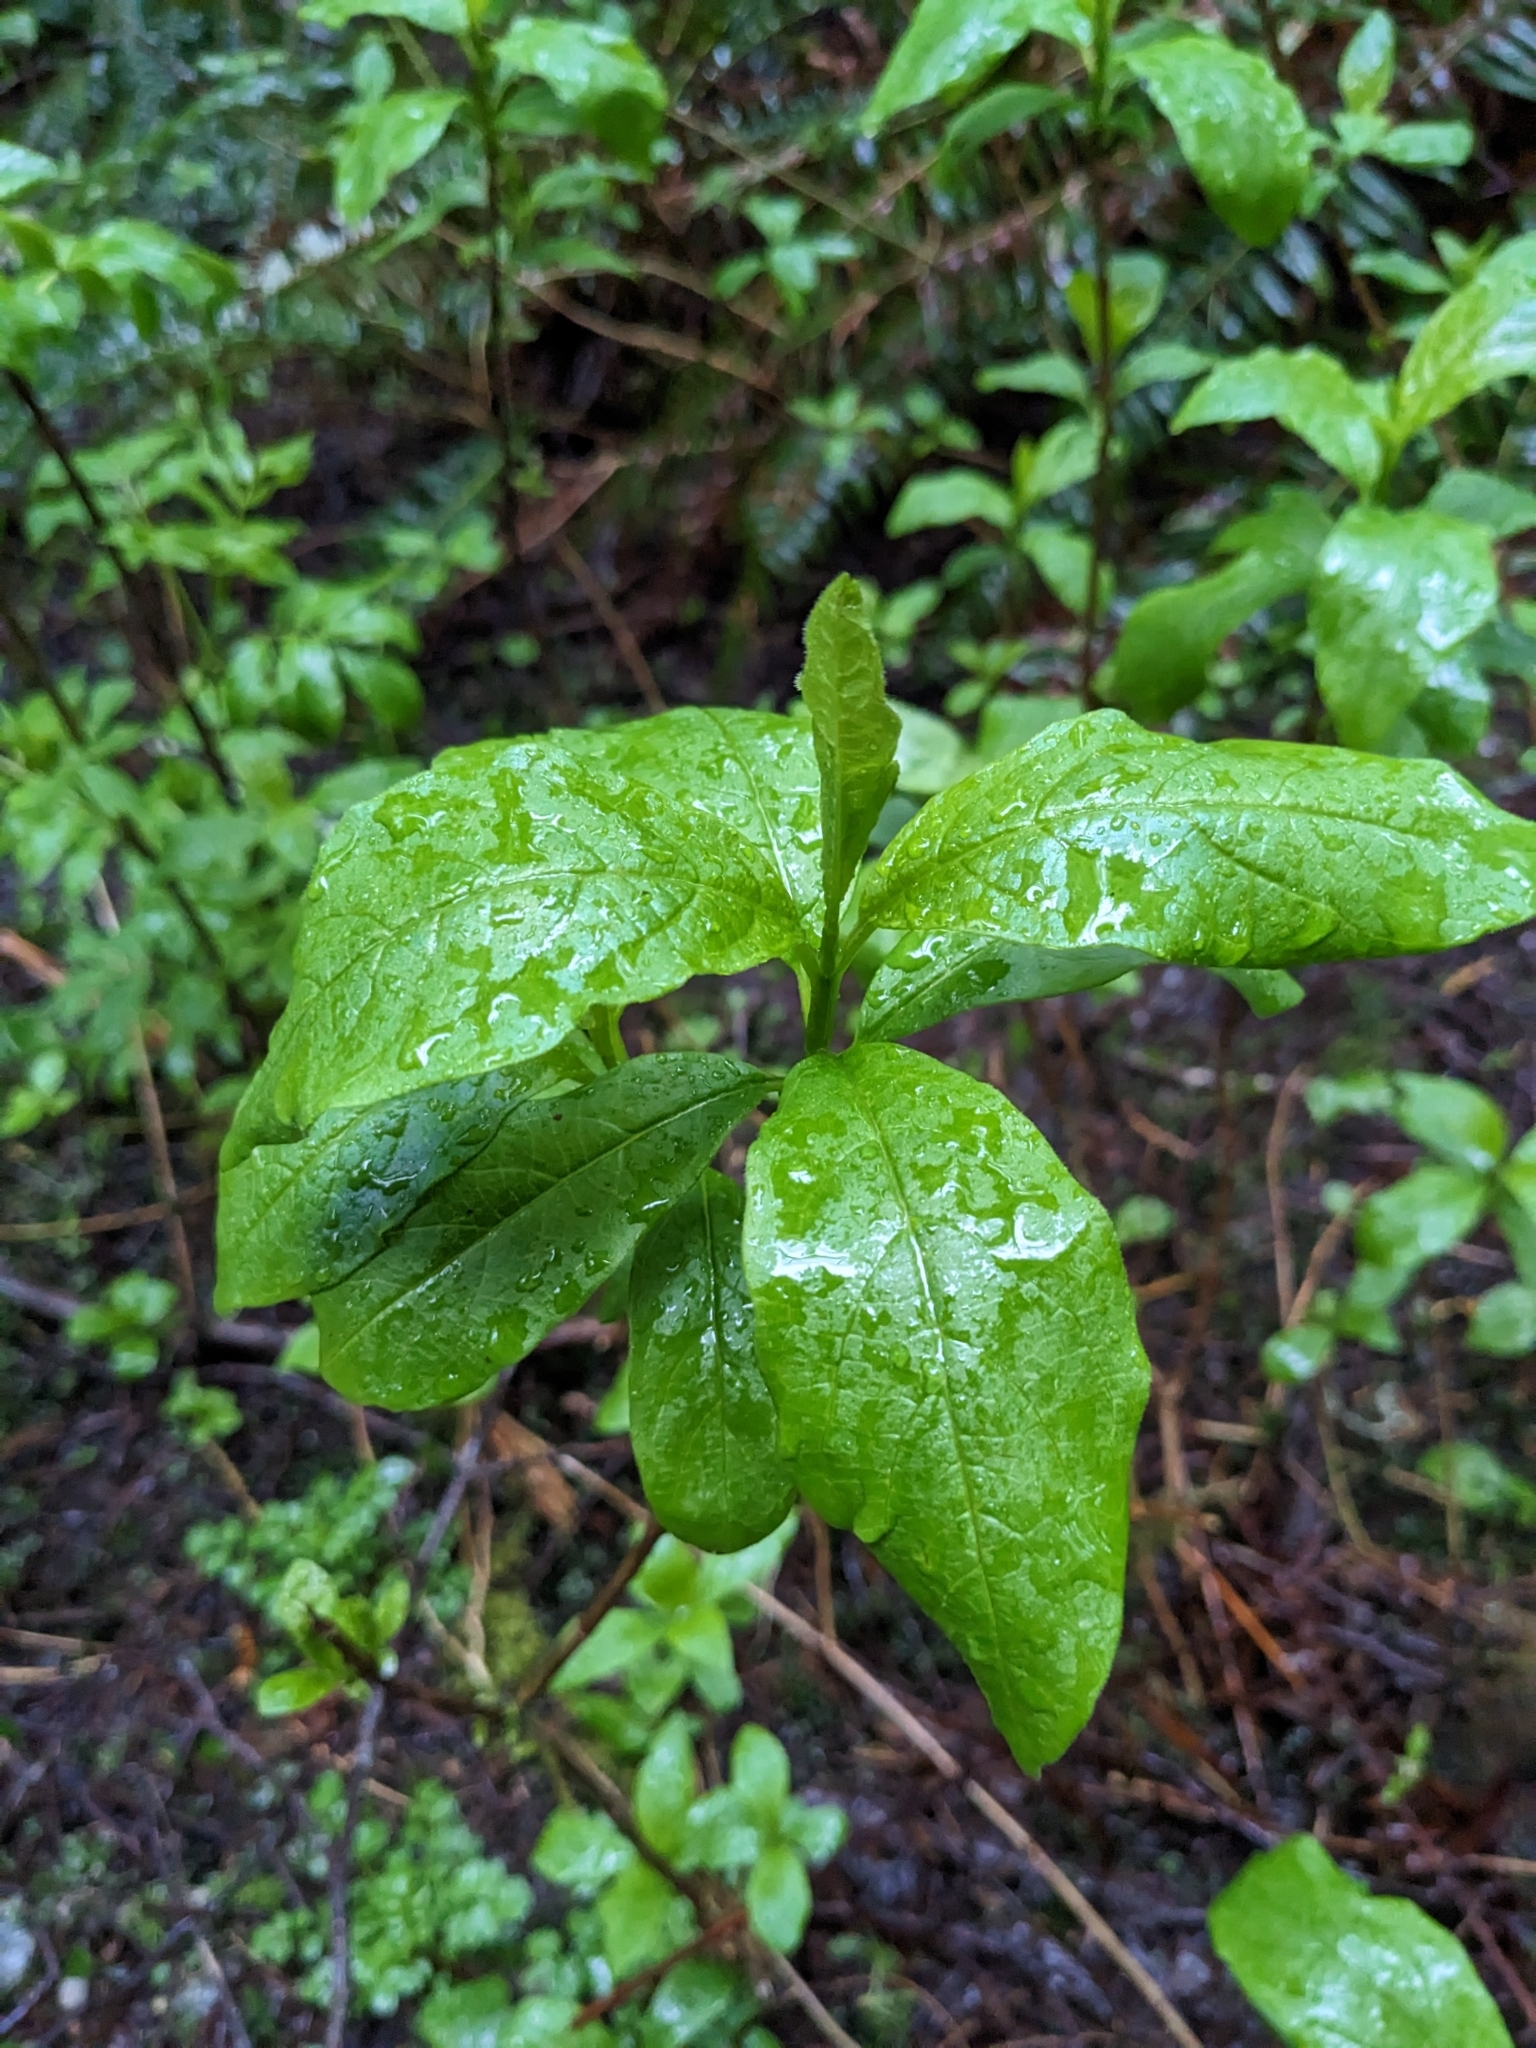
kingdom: Plantae
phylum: Tracheophyta
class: Magnoliopsida
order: Dipsacales
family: Caprifoliaceae
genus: Lonicera
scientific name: Lonicera involucrata
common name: Californian honeysuckle
